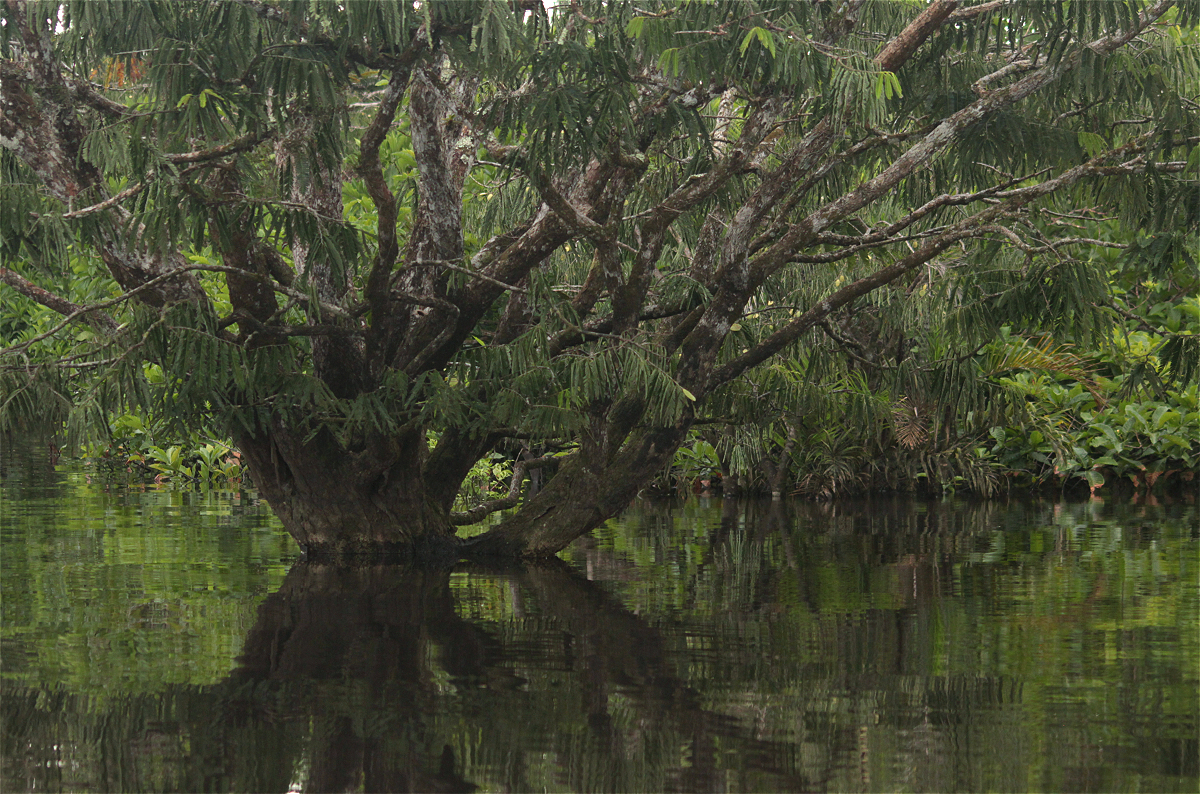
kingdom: Plantae
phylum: Tracheophyta
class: Magnoliopsida
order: Fabales
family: Fabaceae
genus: Macrolobium
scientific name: Macrolobium acaciifolium
